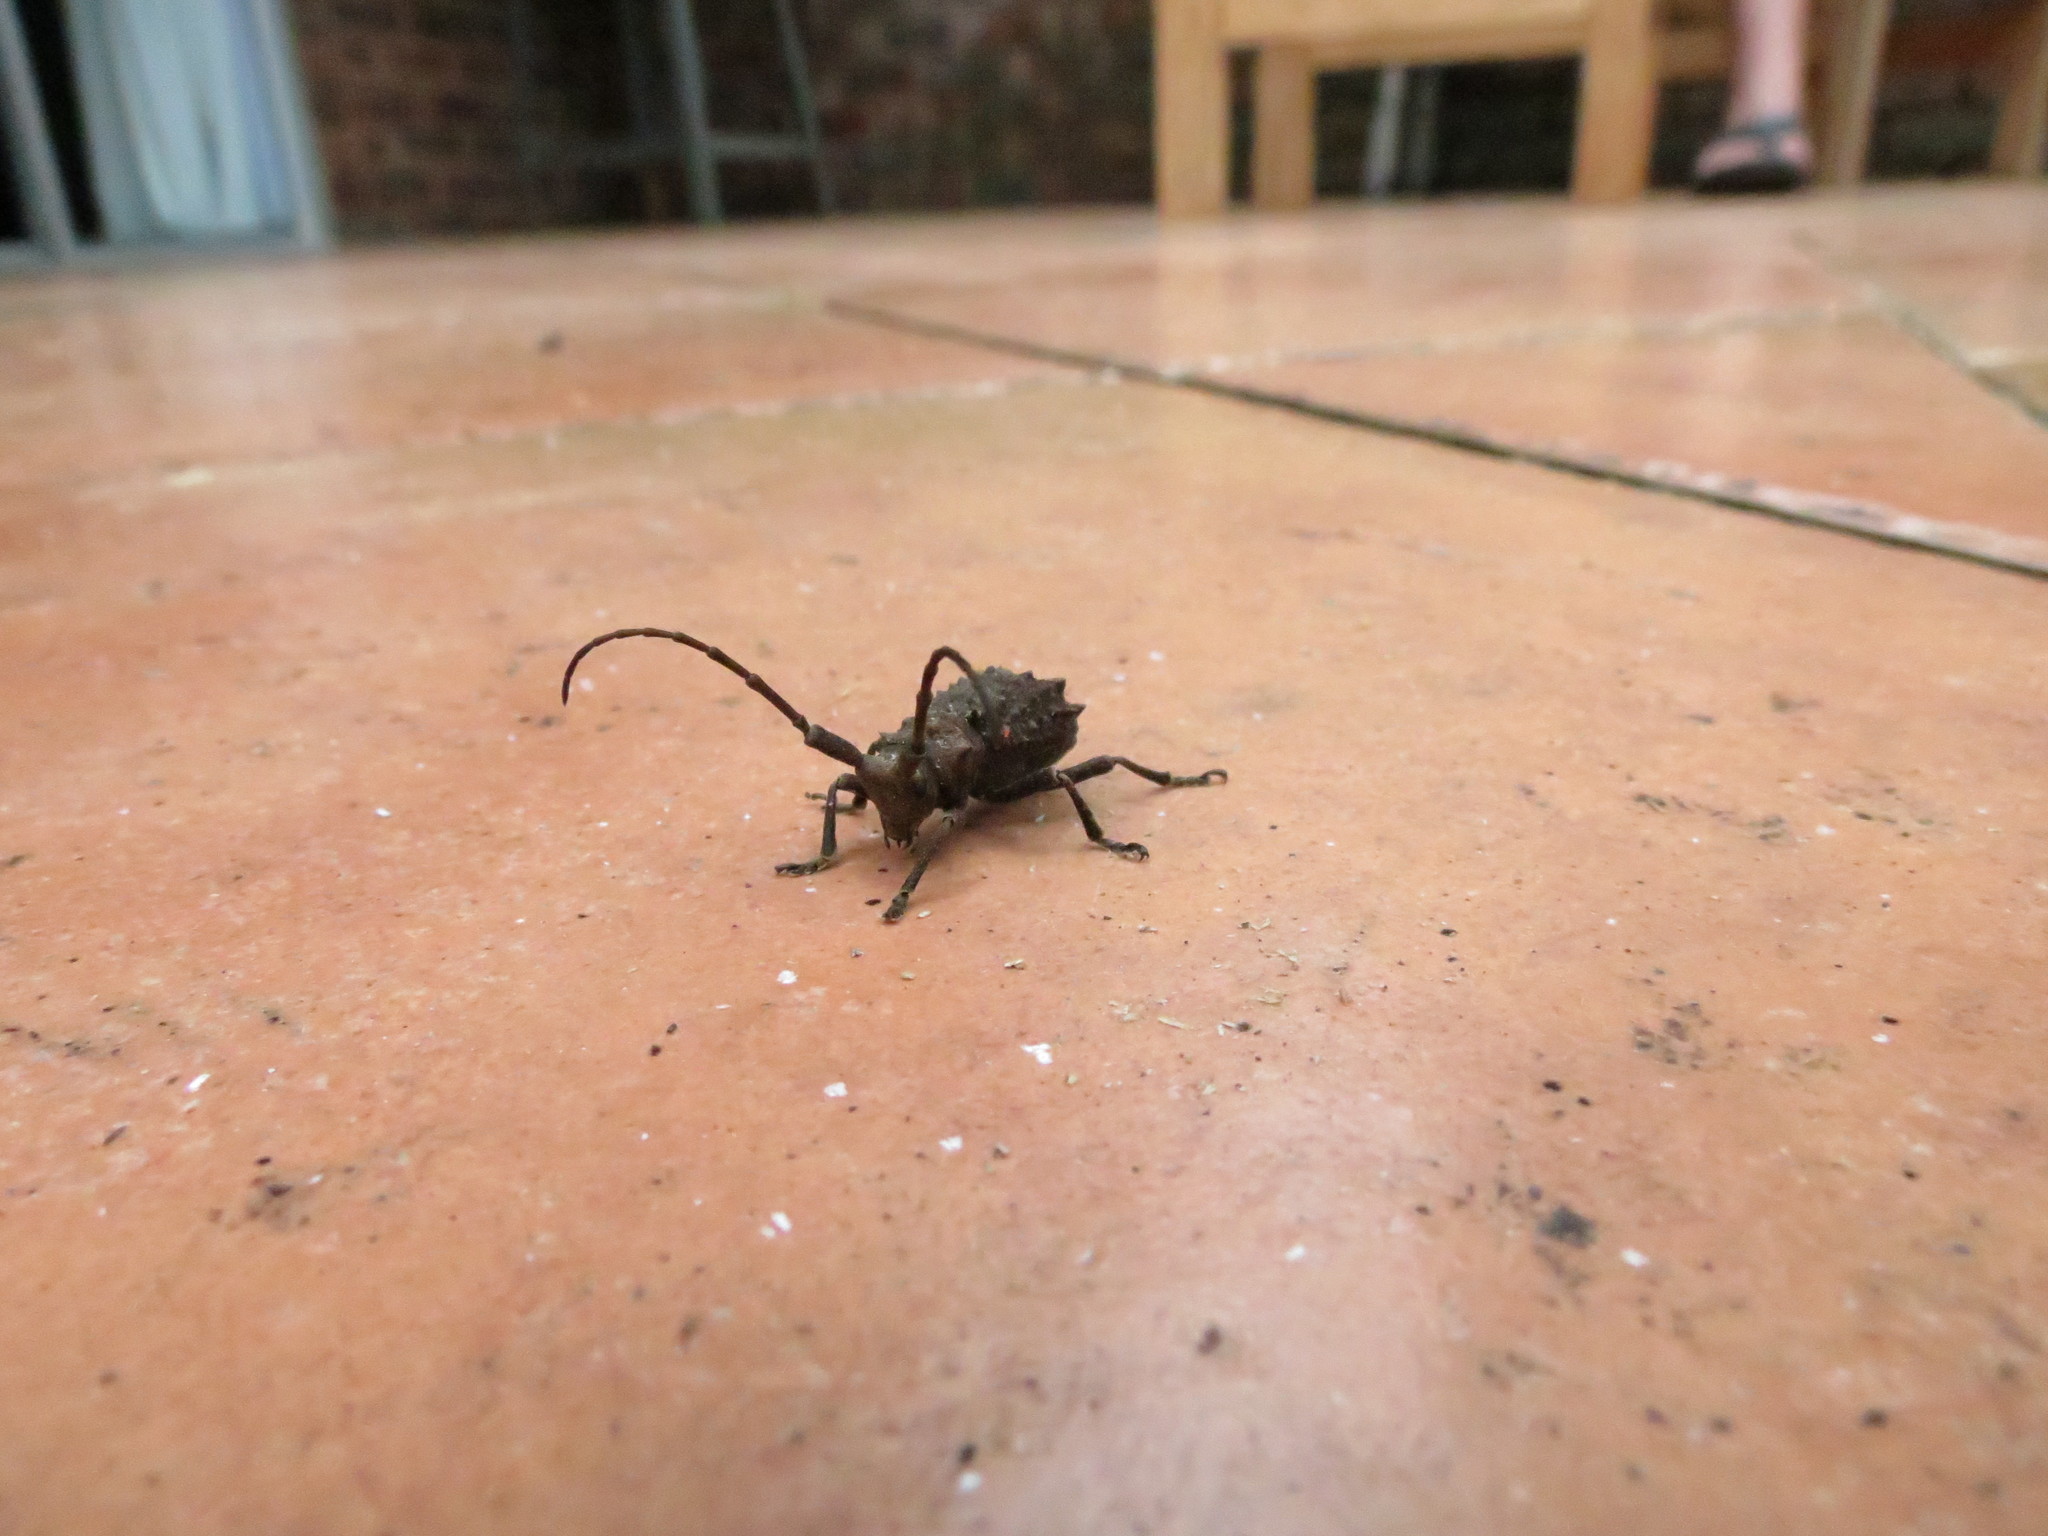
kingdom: Animalia
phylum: Arthropoda
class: Insecta
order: Coleoptera
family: Cerambycidae
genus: Neophrissoma
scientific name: Neophrissoma umbrinum
